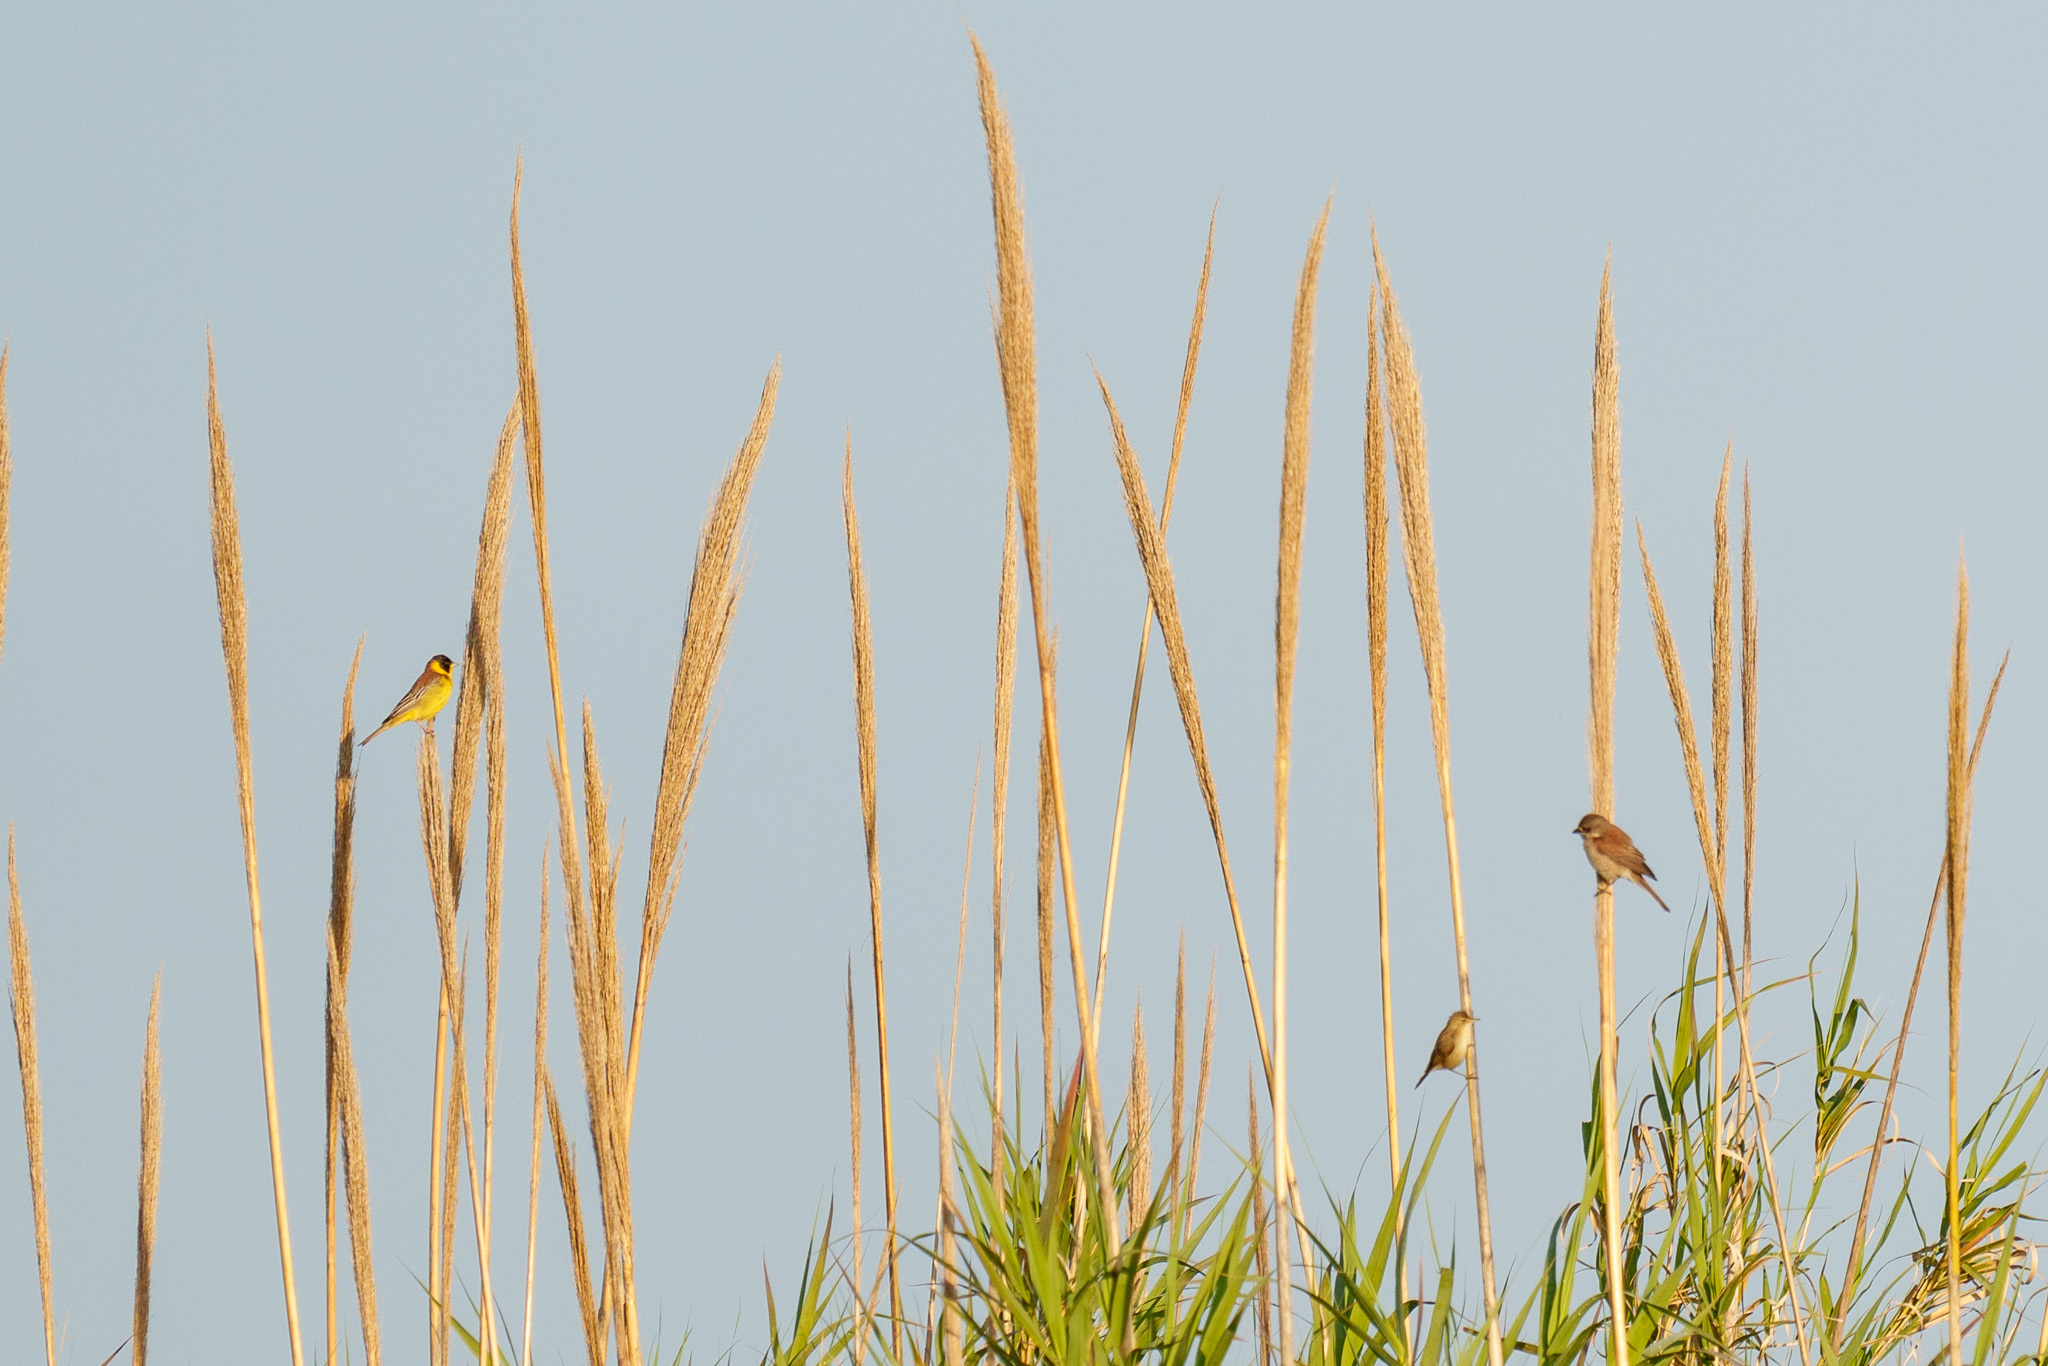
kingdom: Animalia
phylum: Chordata
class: Aves
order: Passeriformes
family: Emberizidae
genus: Emberiza
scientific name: Emberiza melanocephala
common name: Black-headed bunting
